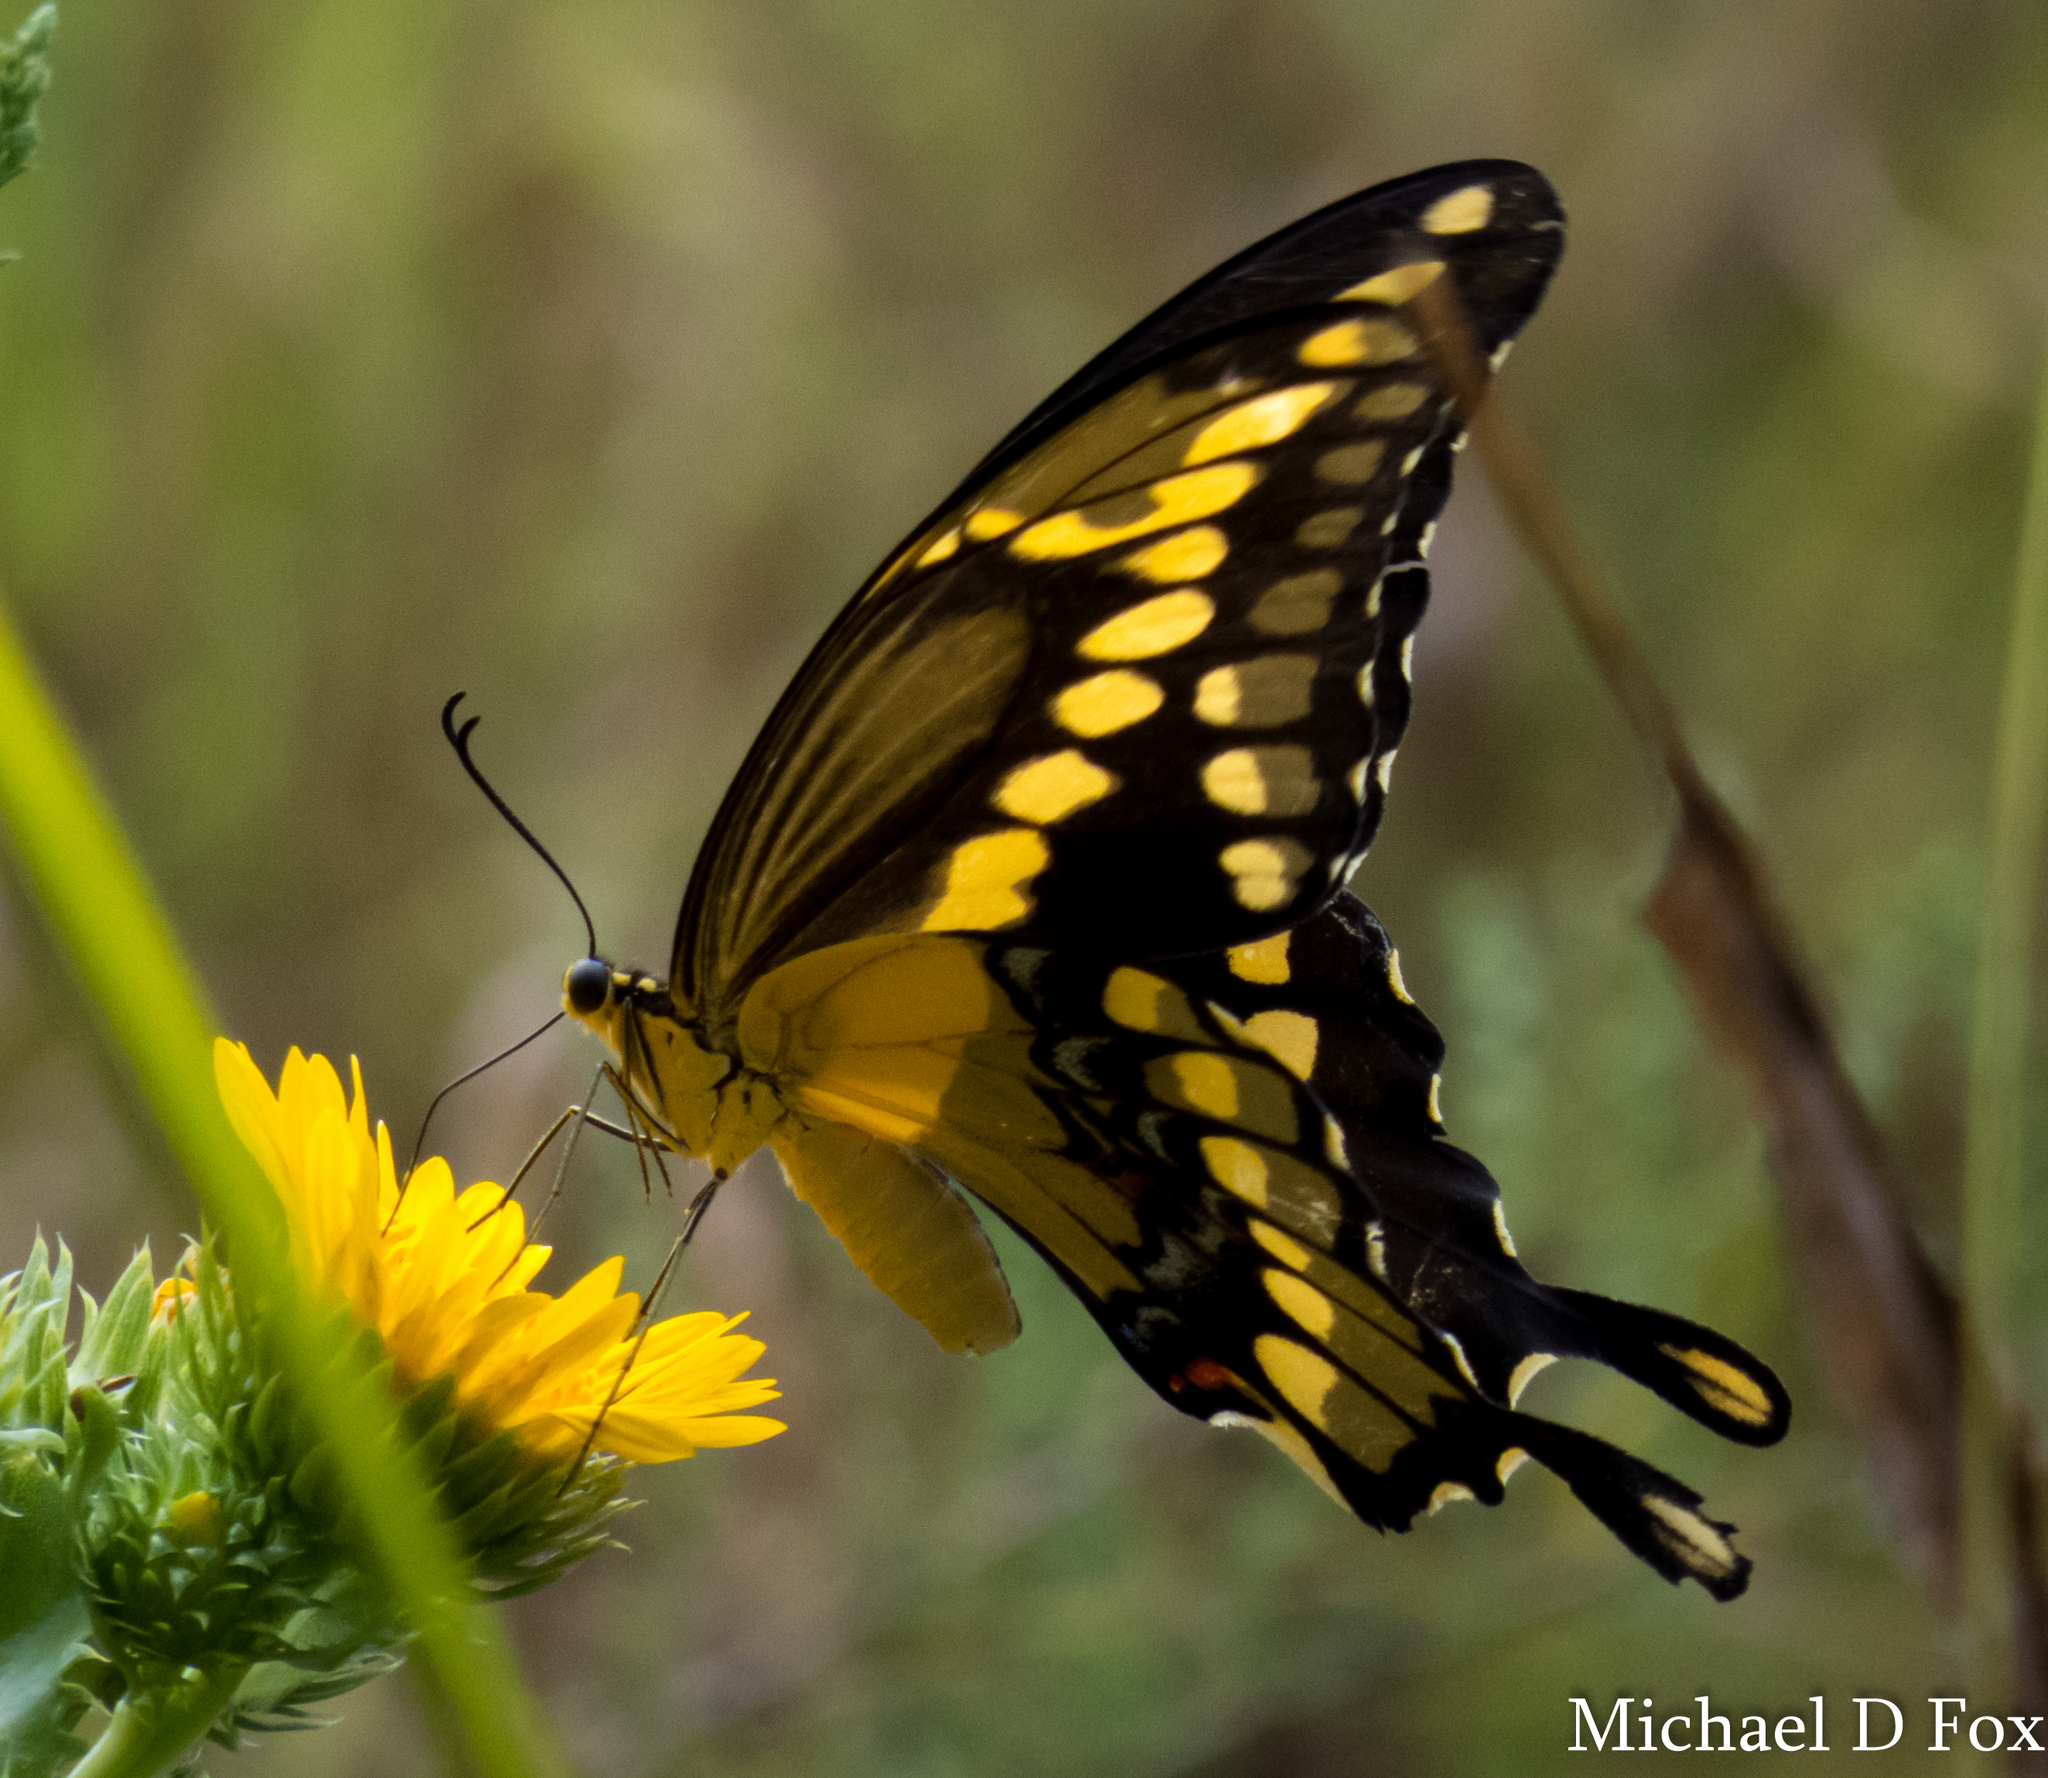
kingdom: Animalia
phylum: Arthropoda
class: Insecta
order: Lepidoptera
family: Papilionidae
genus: Papilio
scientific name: Papilio cresphontes
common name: Giant swallowtail
